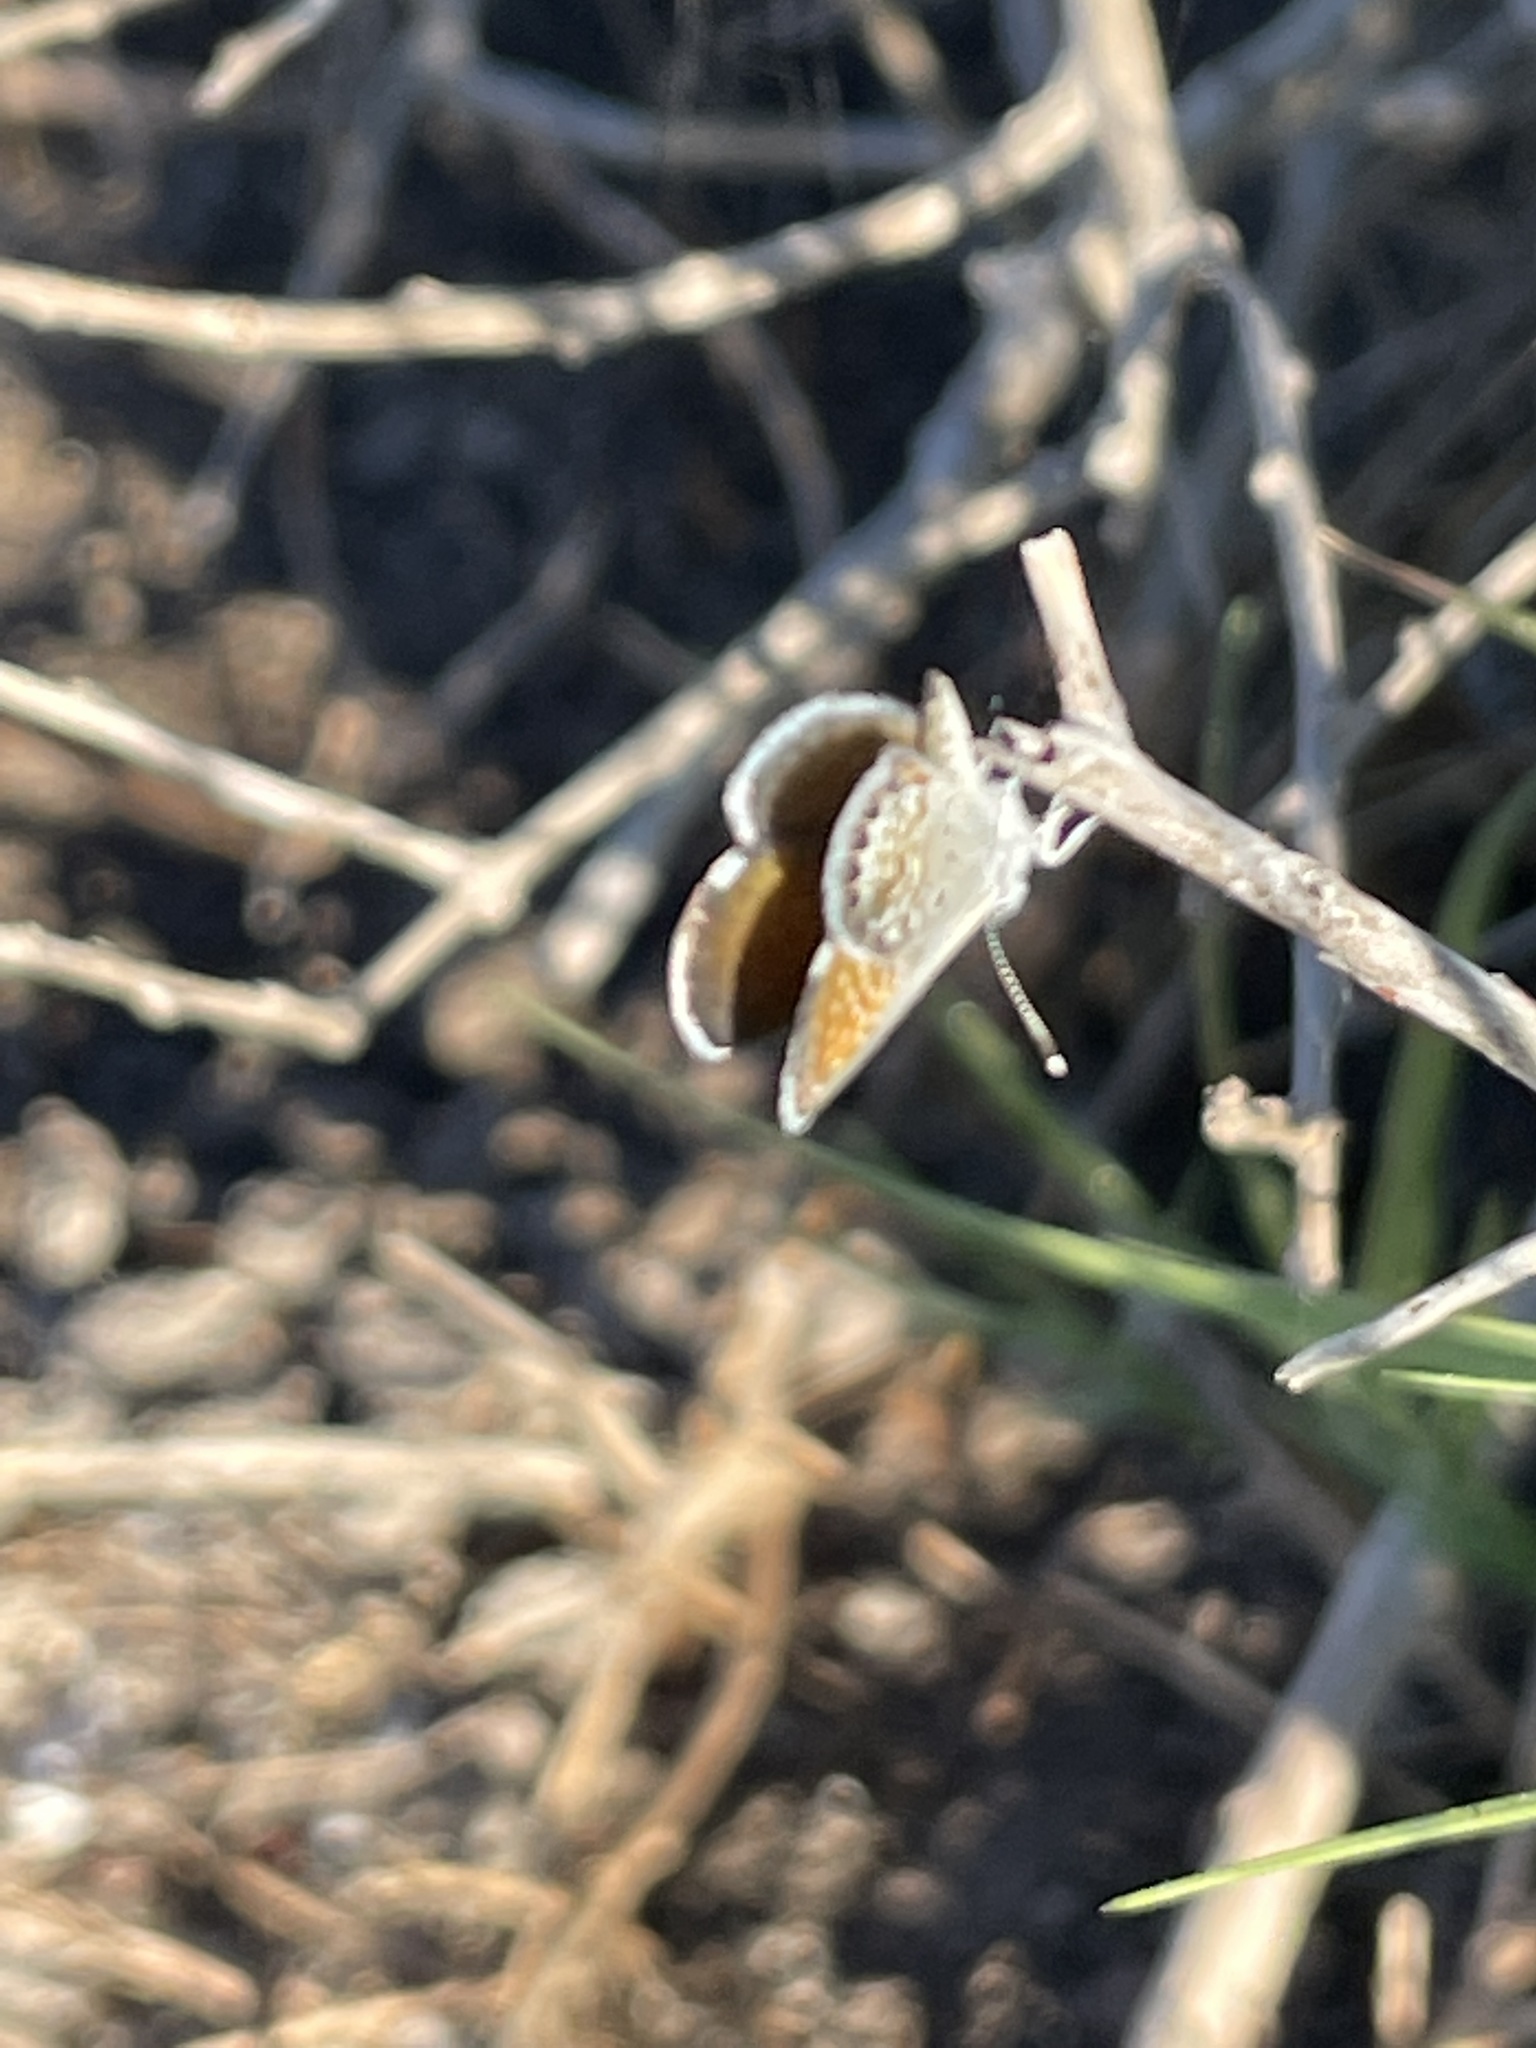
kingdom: Animalia
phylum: Arthropoda
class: Insecta
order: Lepidoptera
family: Lycaenidae
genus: Brephidium
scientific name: Brephidium exilis
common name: Pygmy blue
